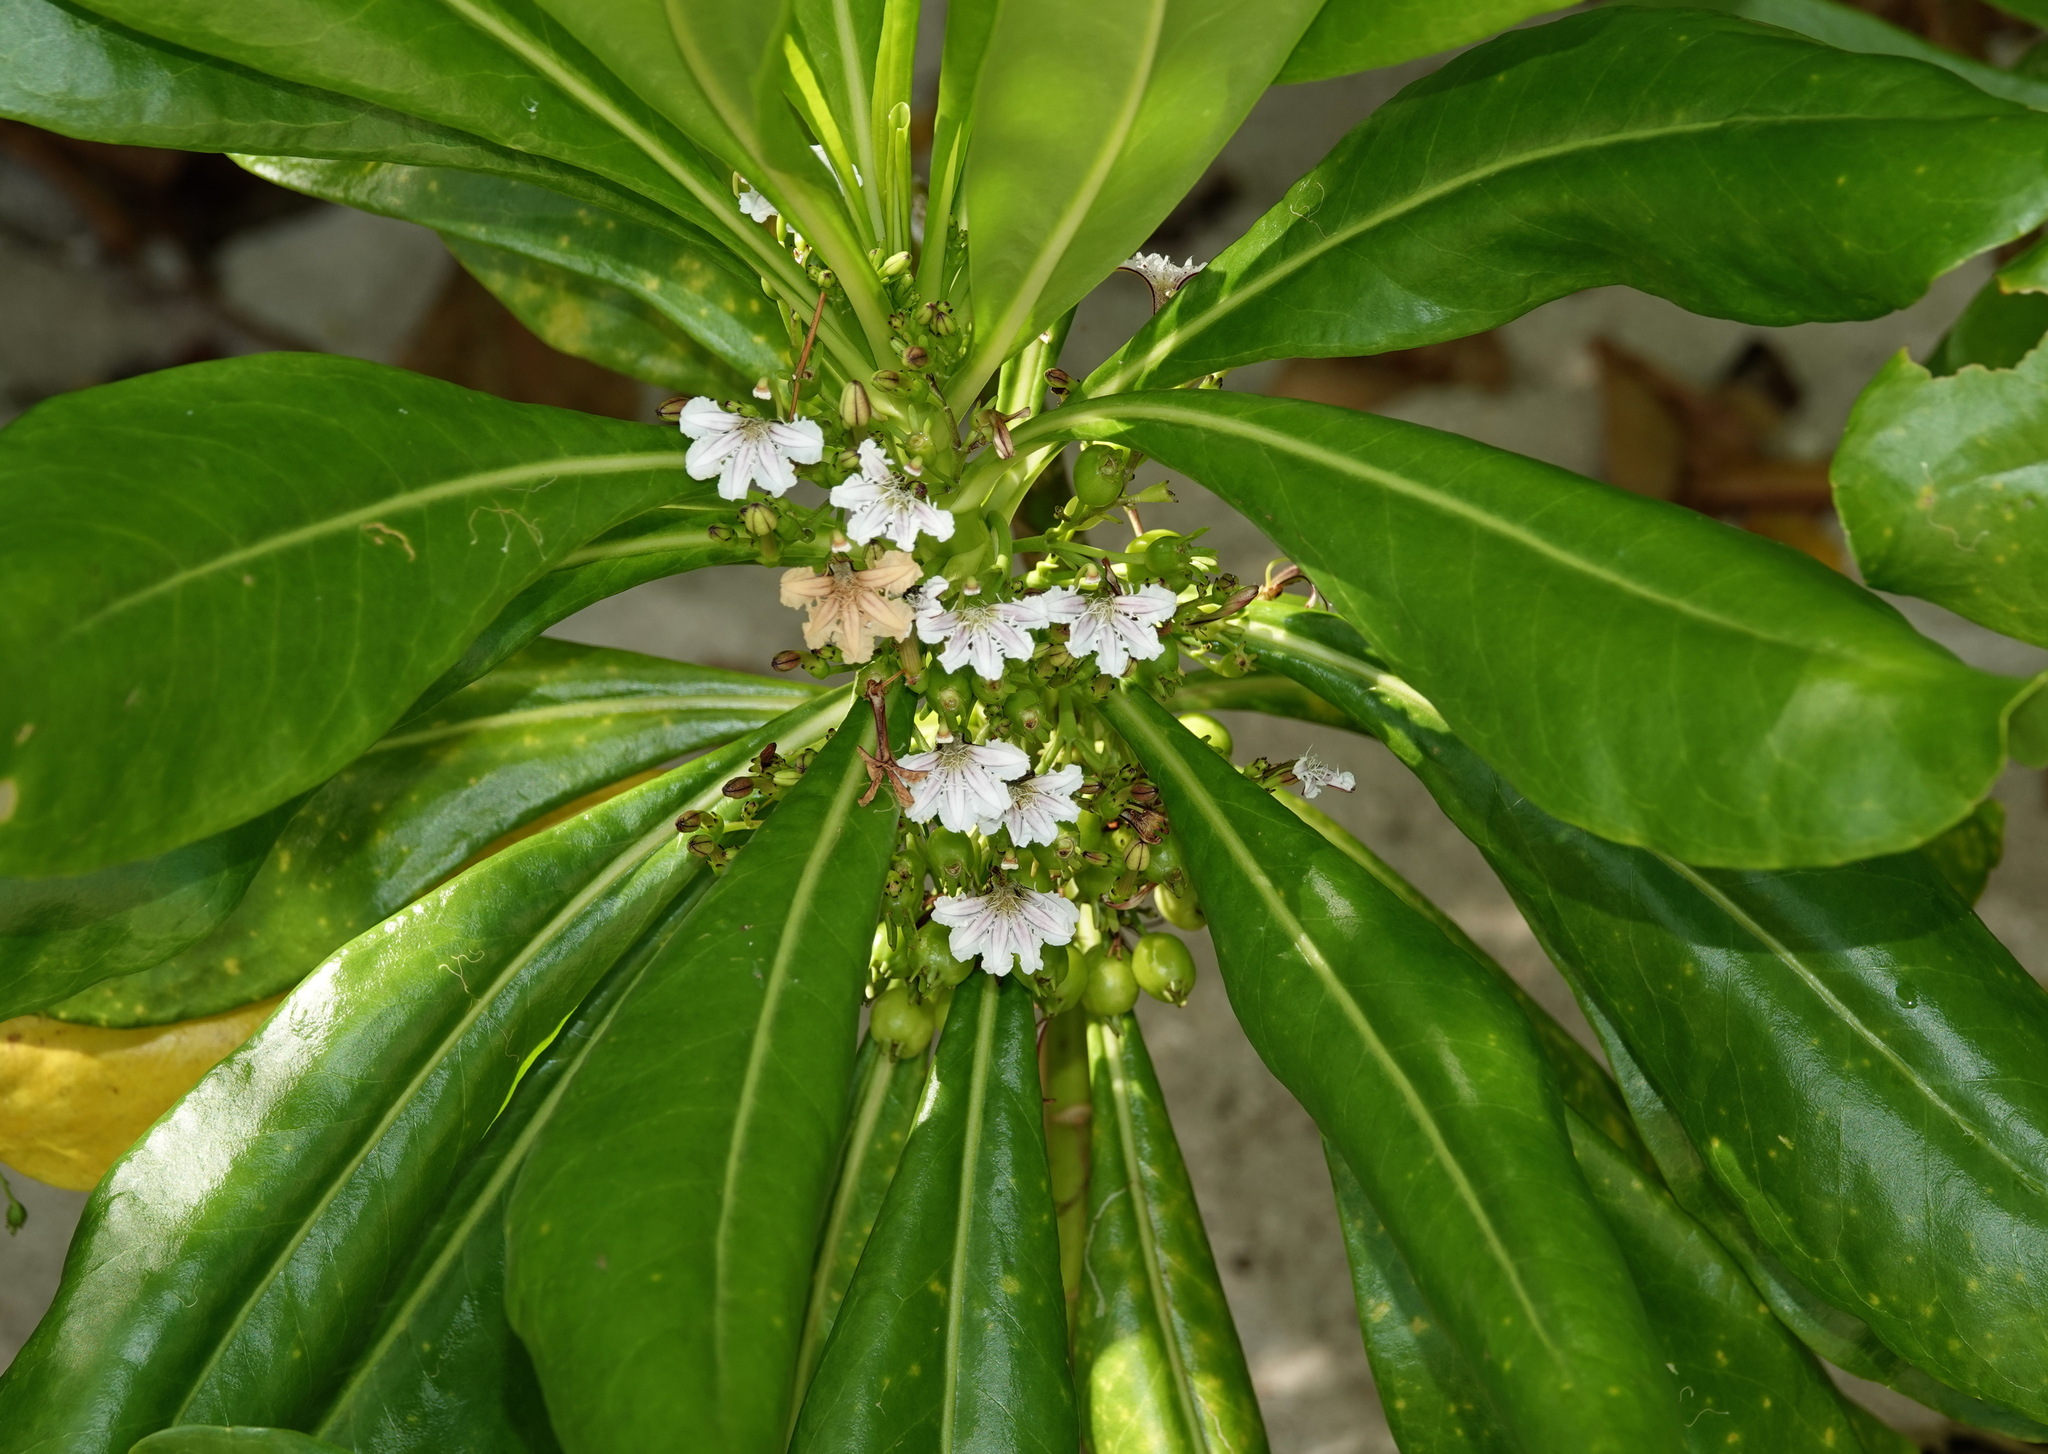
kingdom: Plantae
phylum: Tracheophyta
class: Magnoliopsida
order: Asterales
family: Goodeniaceae
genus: Scaevola
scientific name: Scaevola taccada
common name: Sea lettucetree
